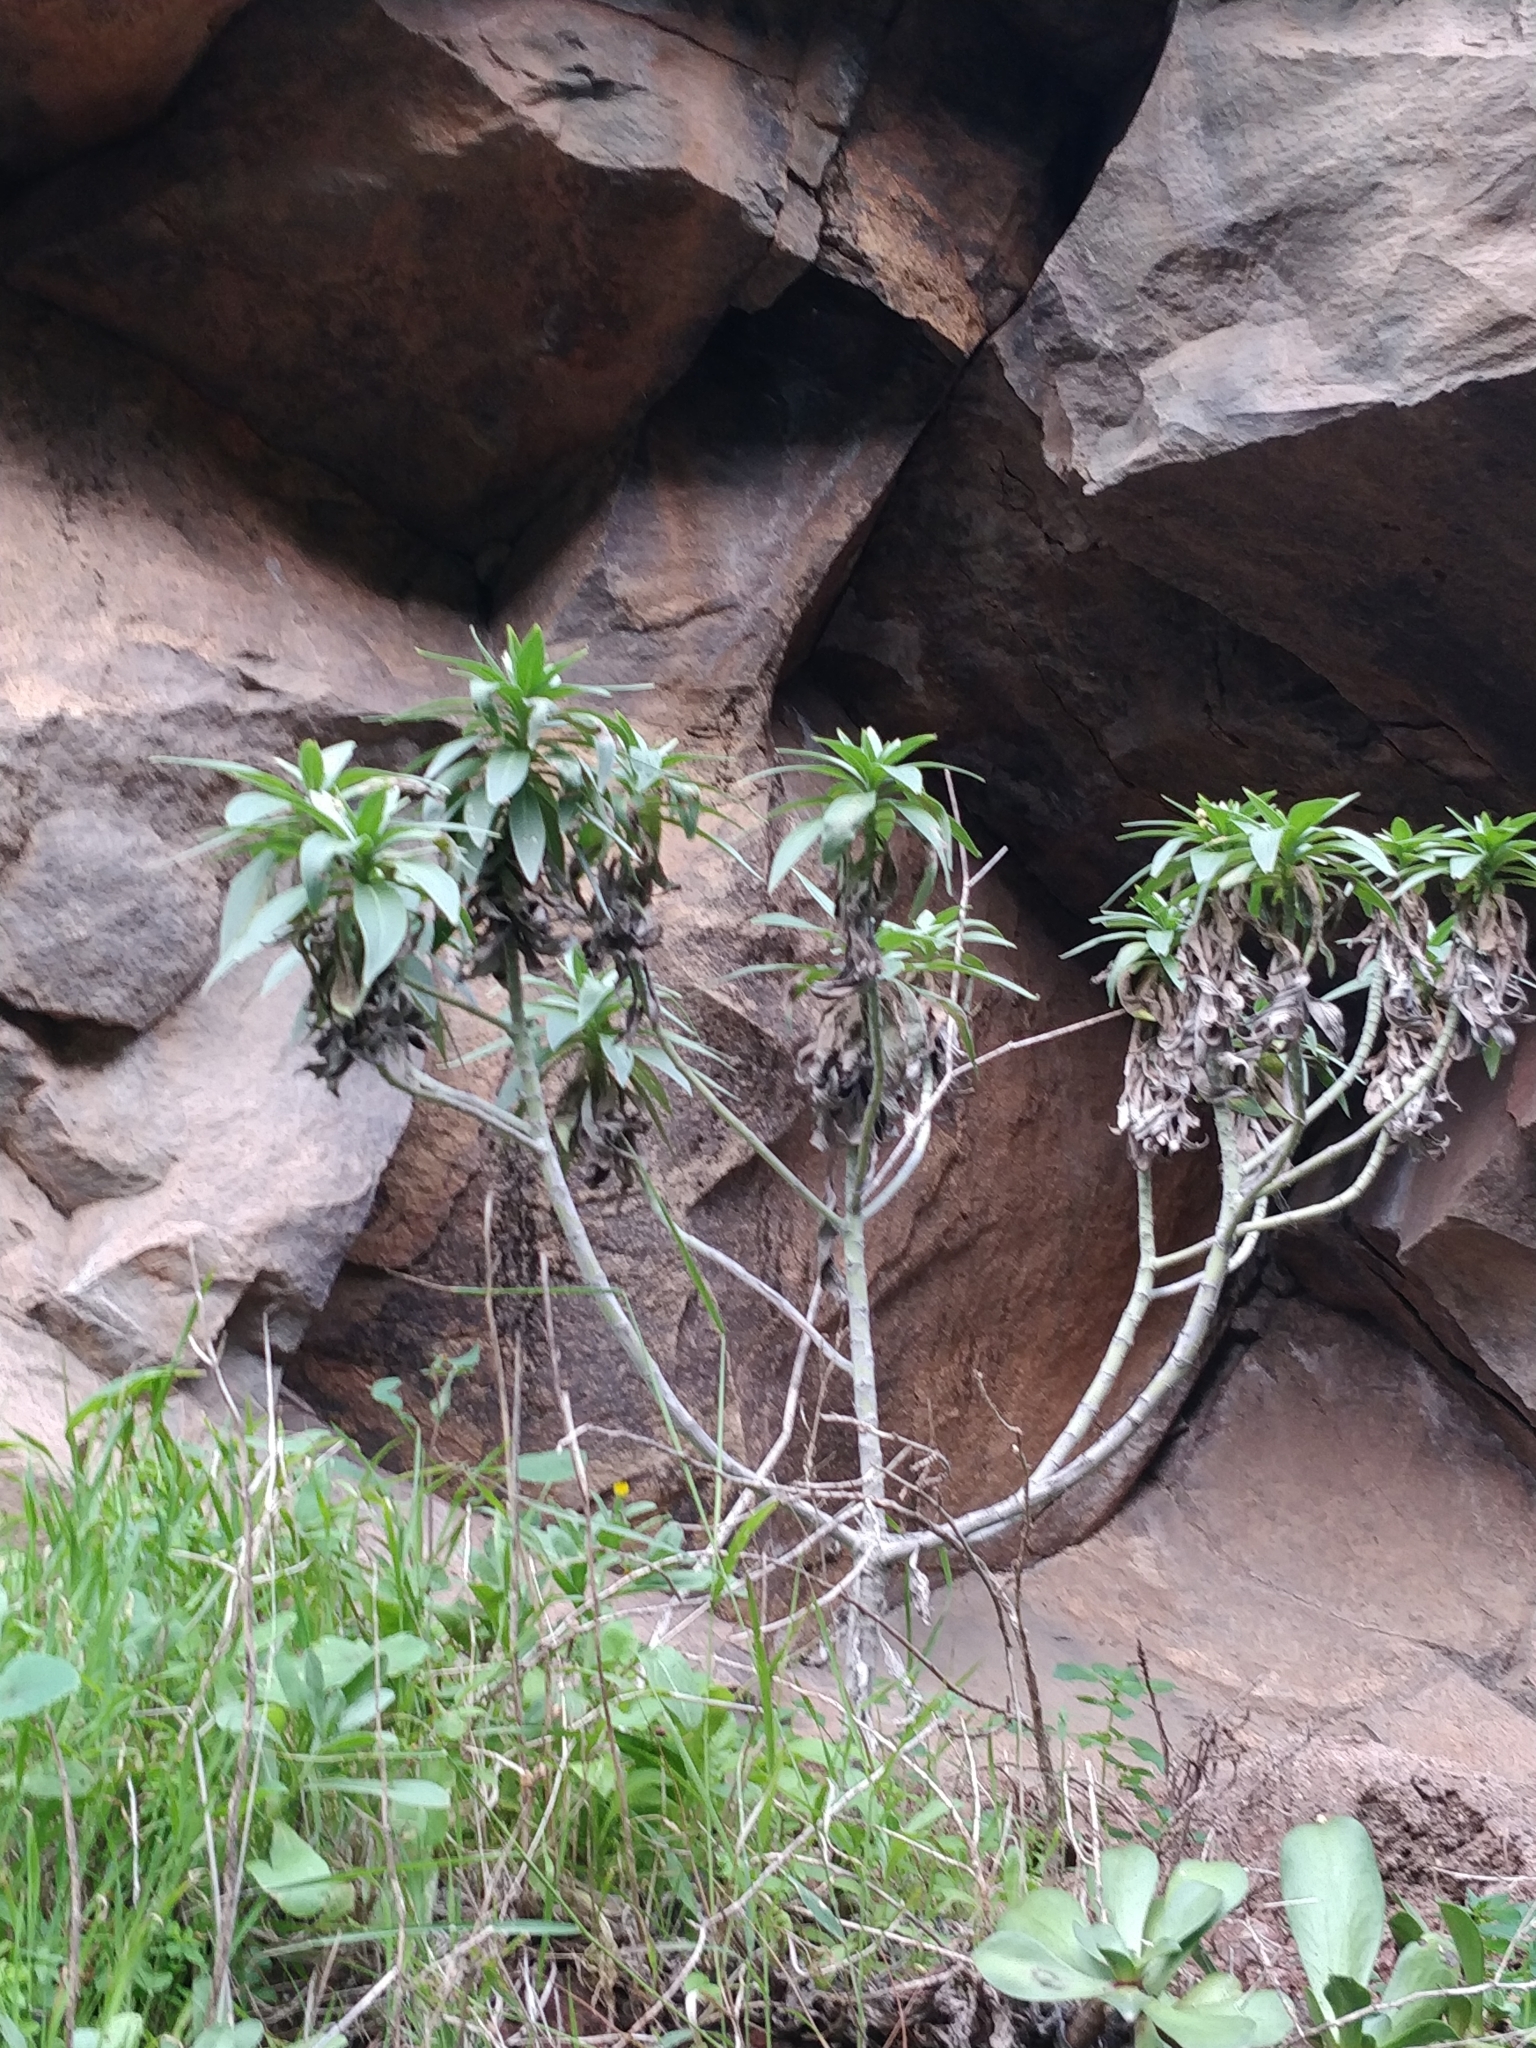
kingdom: Plantae
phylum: Tracheophyta
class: Magnoliopsida
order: Boraginales
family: Boraginaceae
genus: Echium
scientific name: Echium nervosum
